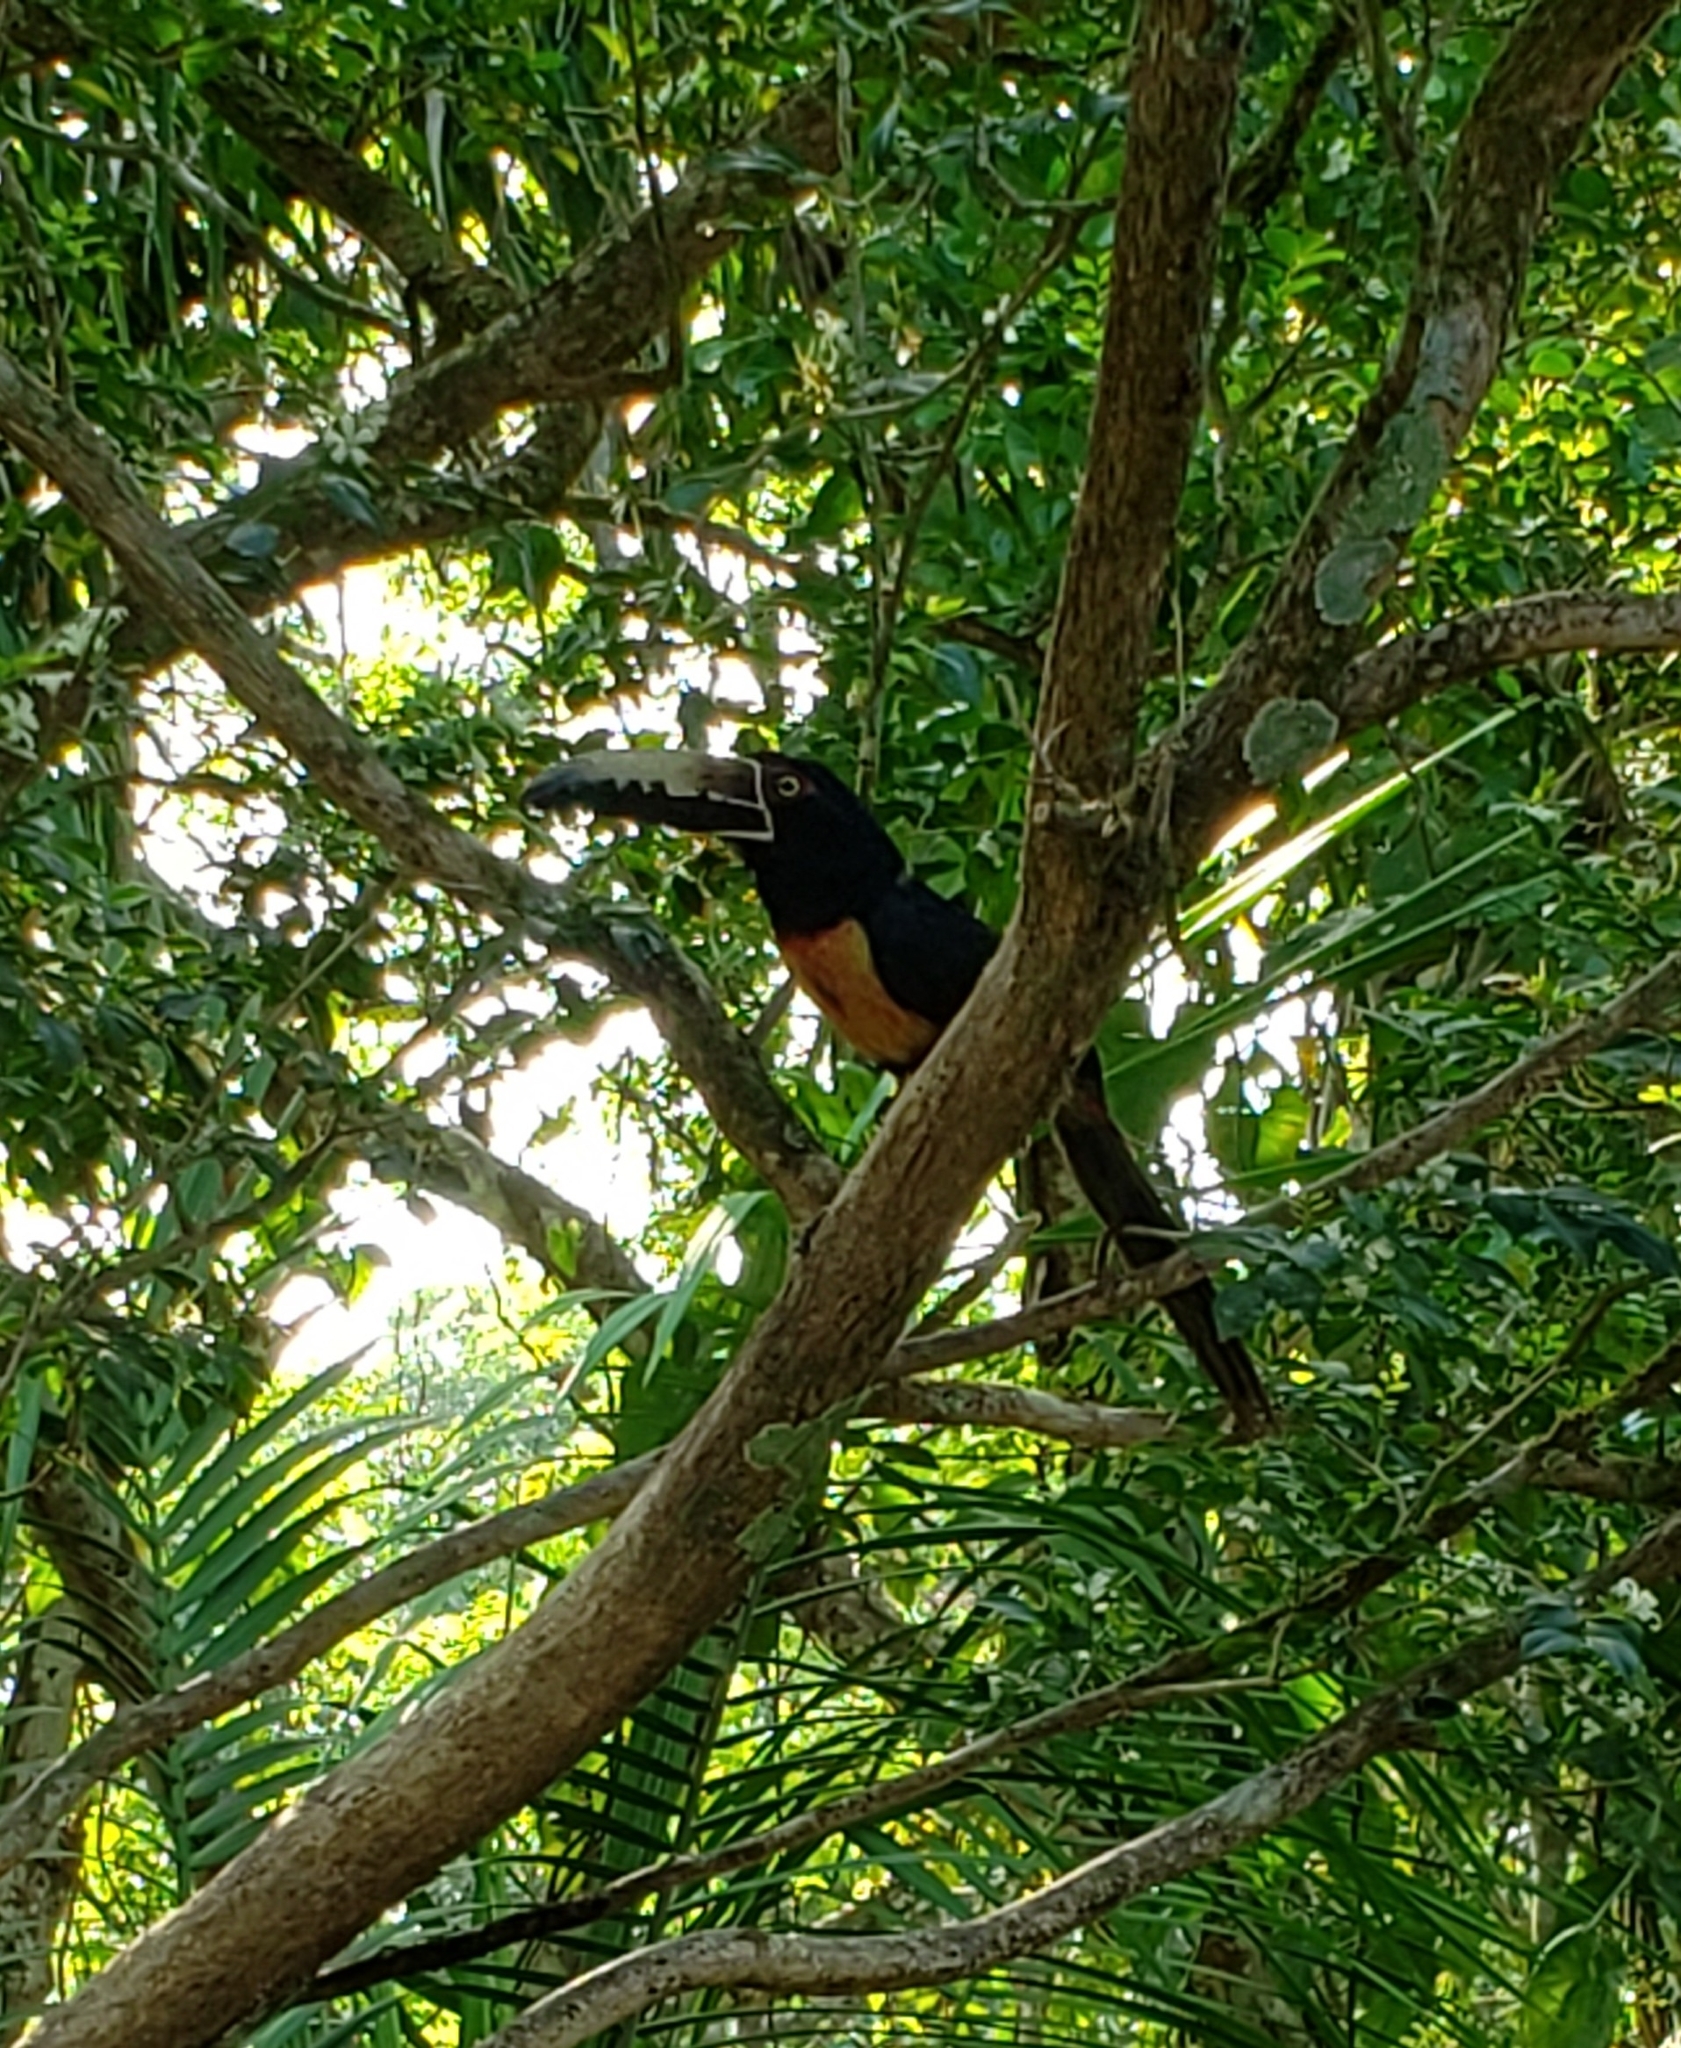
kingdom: Animalia
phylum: Chordata
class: Aves
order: Piciformes
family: Ramphastidae
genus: Pteroglossus
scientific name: Pteroglossus torquatus
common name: Collared aracari
